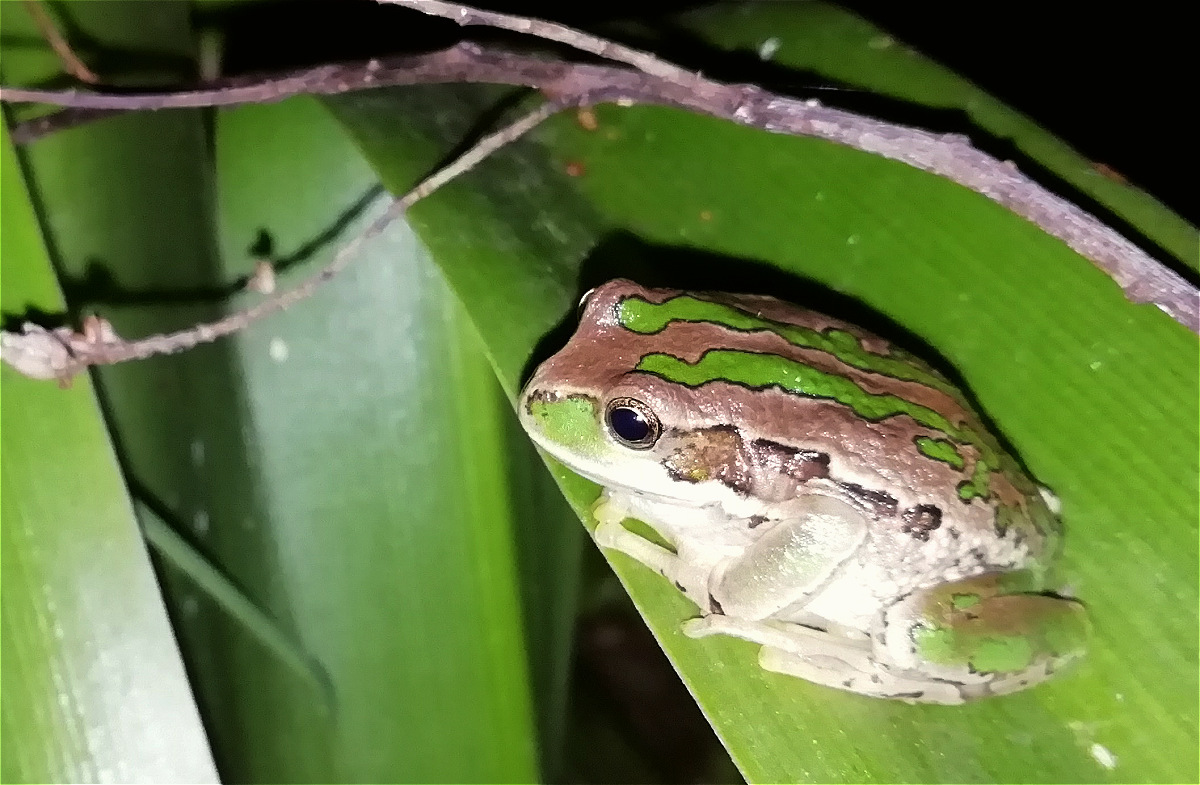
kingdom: Animalia
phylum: Chordata
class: Amphibia
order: Anura
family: Hemiphractidae
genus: Gastrotheca
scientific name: Gastrotheca cuencana
